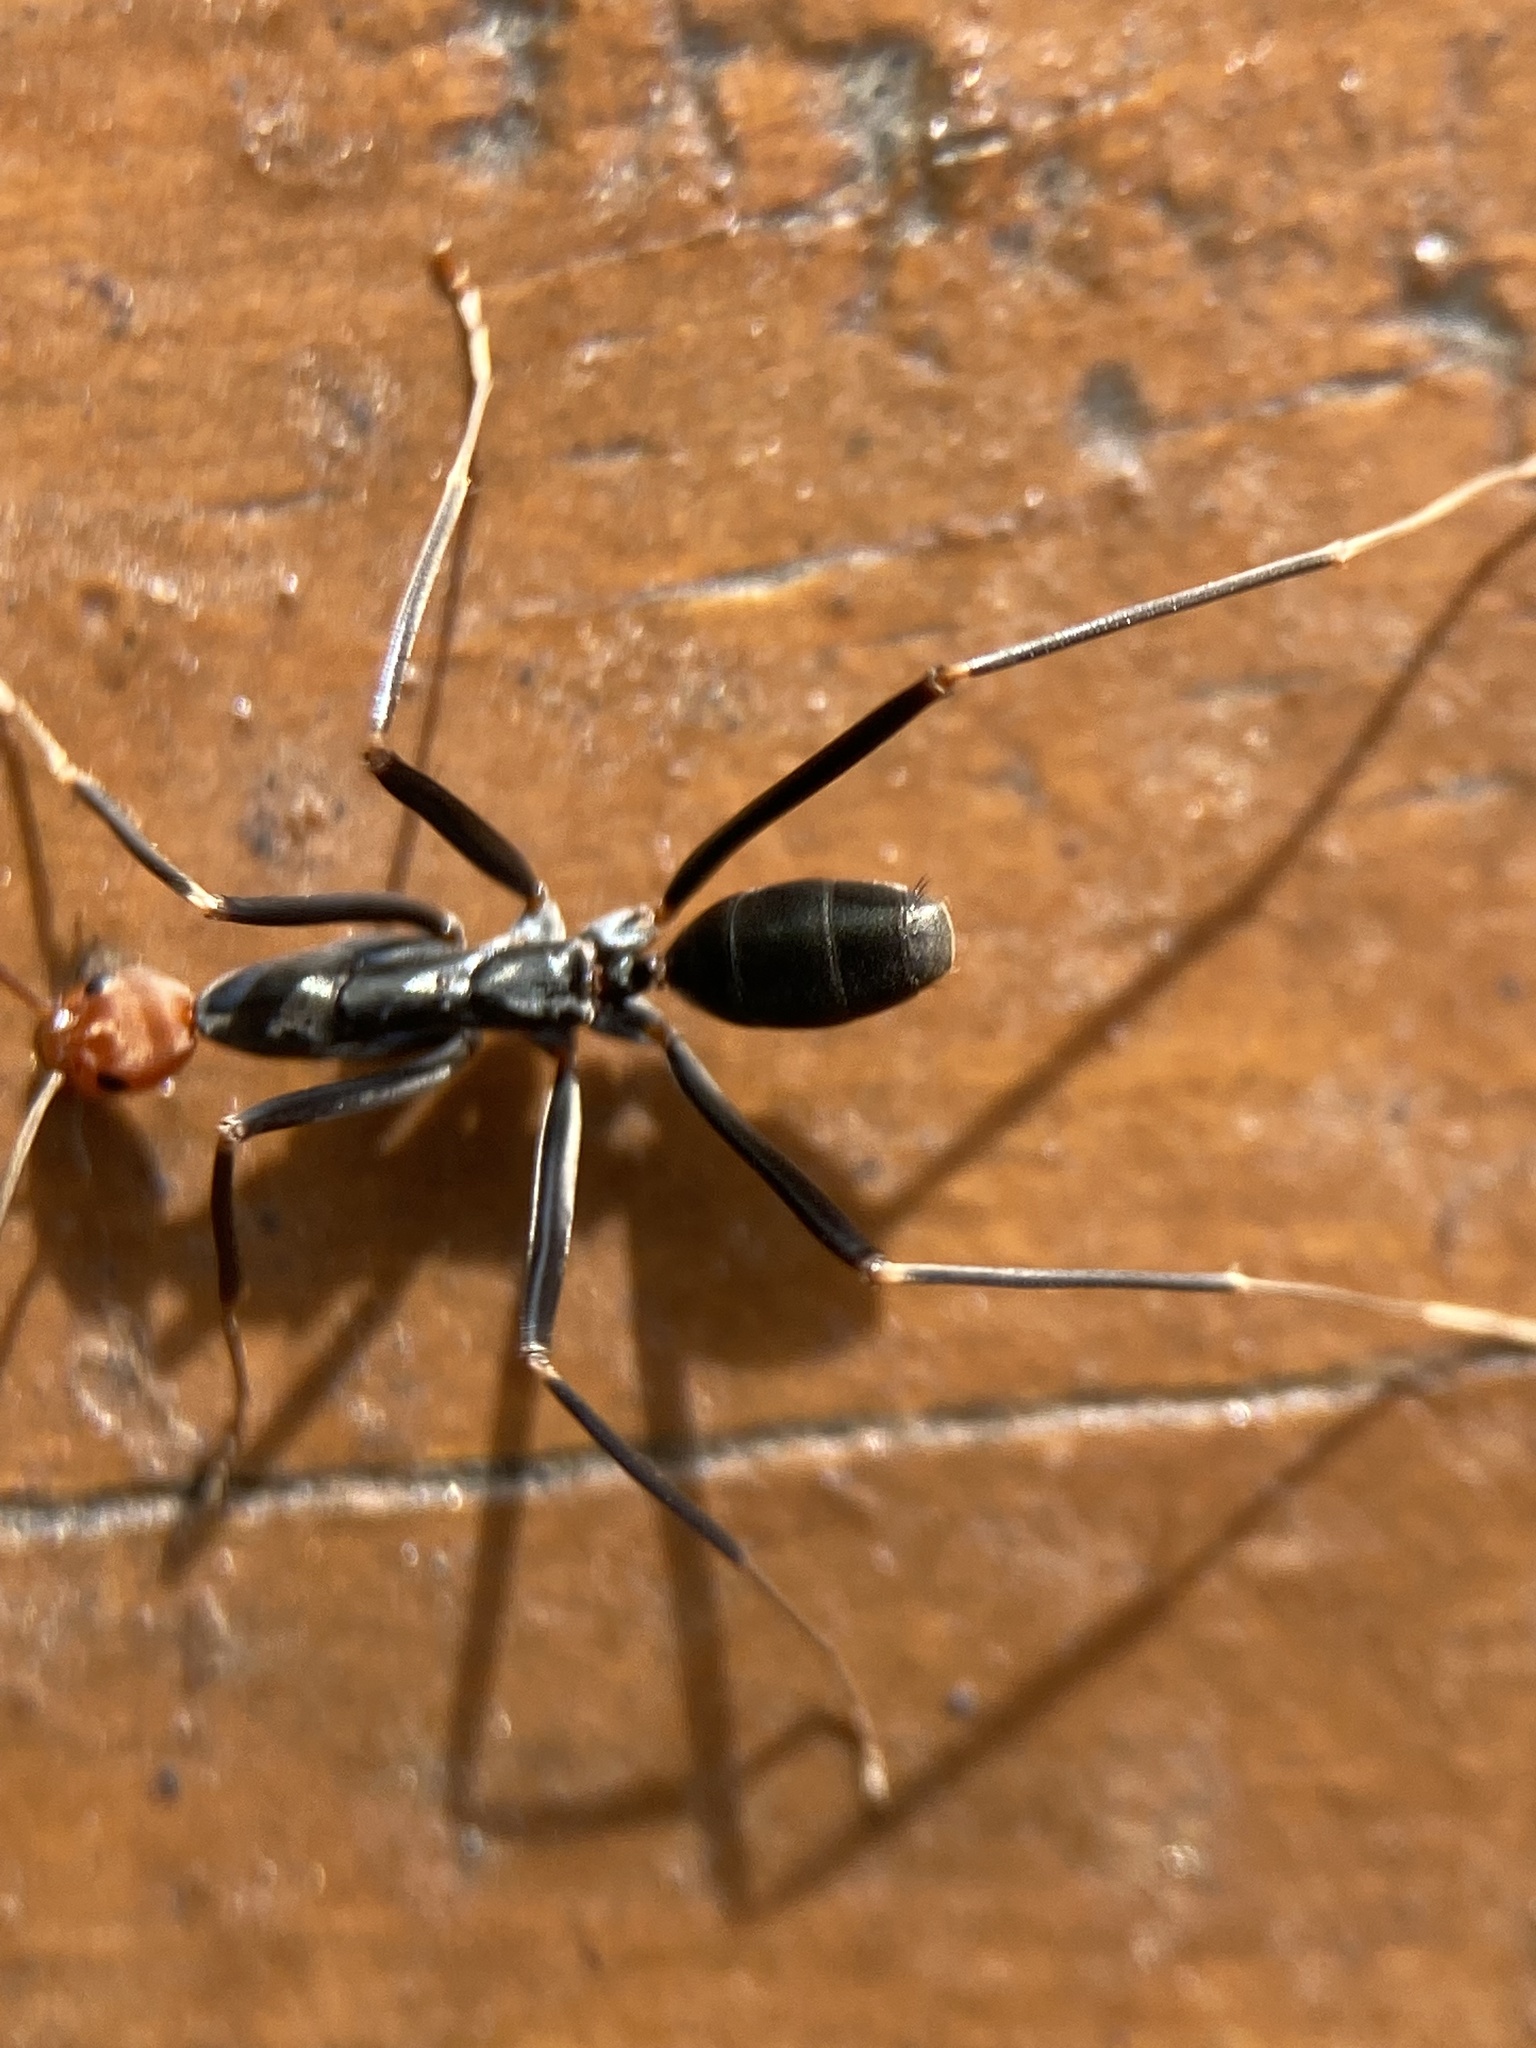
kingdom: Animalia
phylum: Arthropoda
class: Insecta
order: Hymenoptera
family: Formicidae
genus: Leptomyrmex
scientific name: Leptomyrmex erythrocephalus
